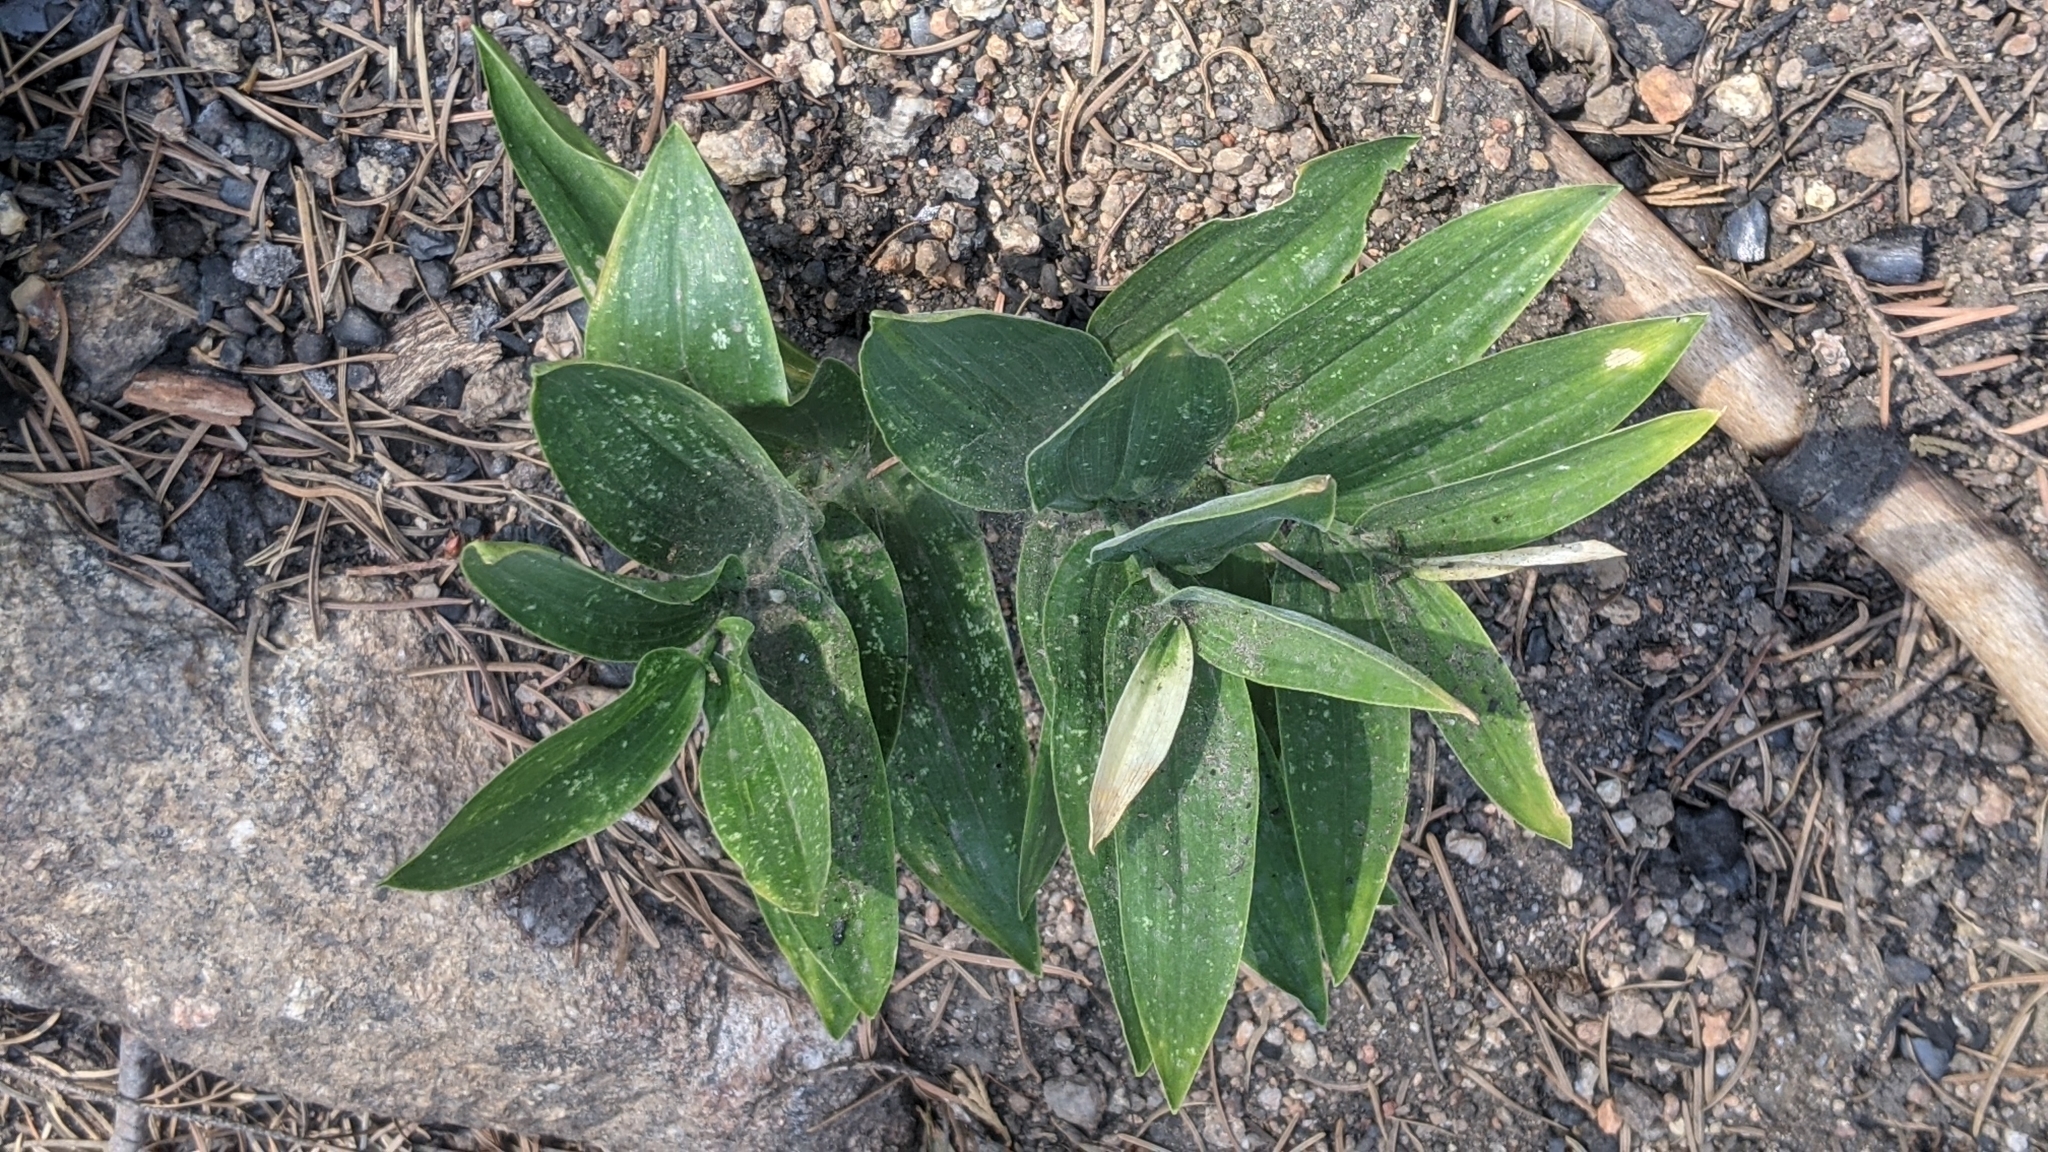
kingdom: Plantae
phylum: Tracheophyta
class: Liliopsida
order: Asparagales
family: Asparagaceae
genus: Maianthemum
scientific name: Maianthemum racemosum
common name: False spikenard
